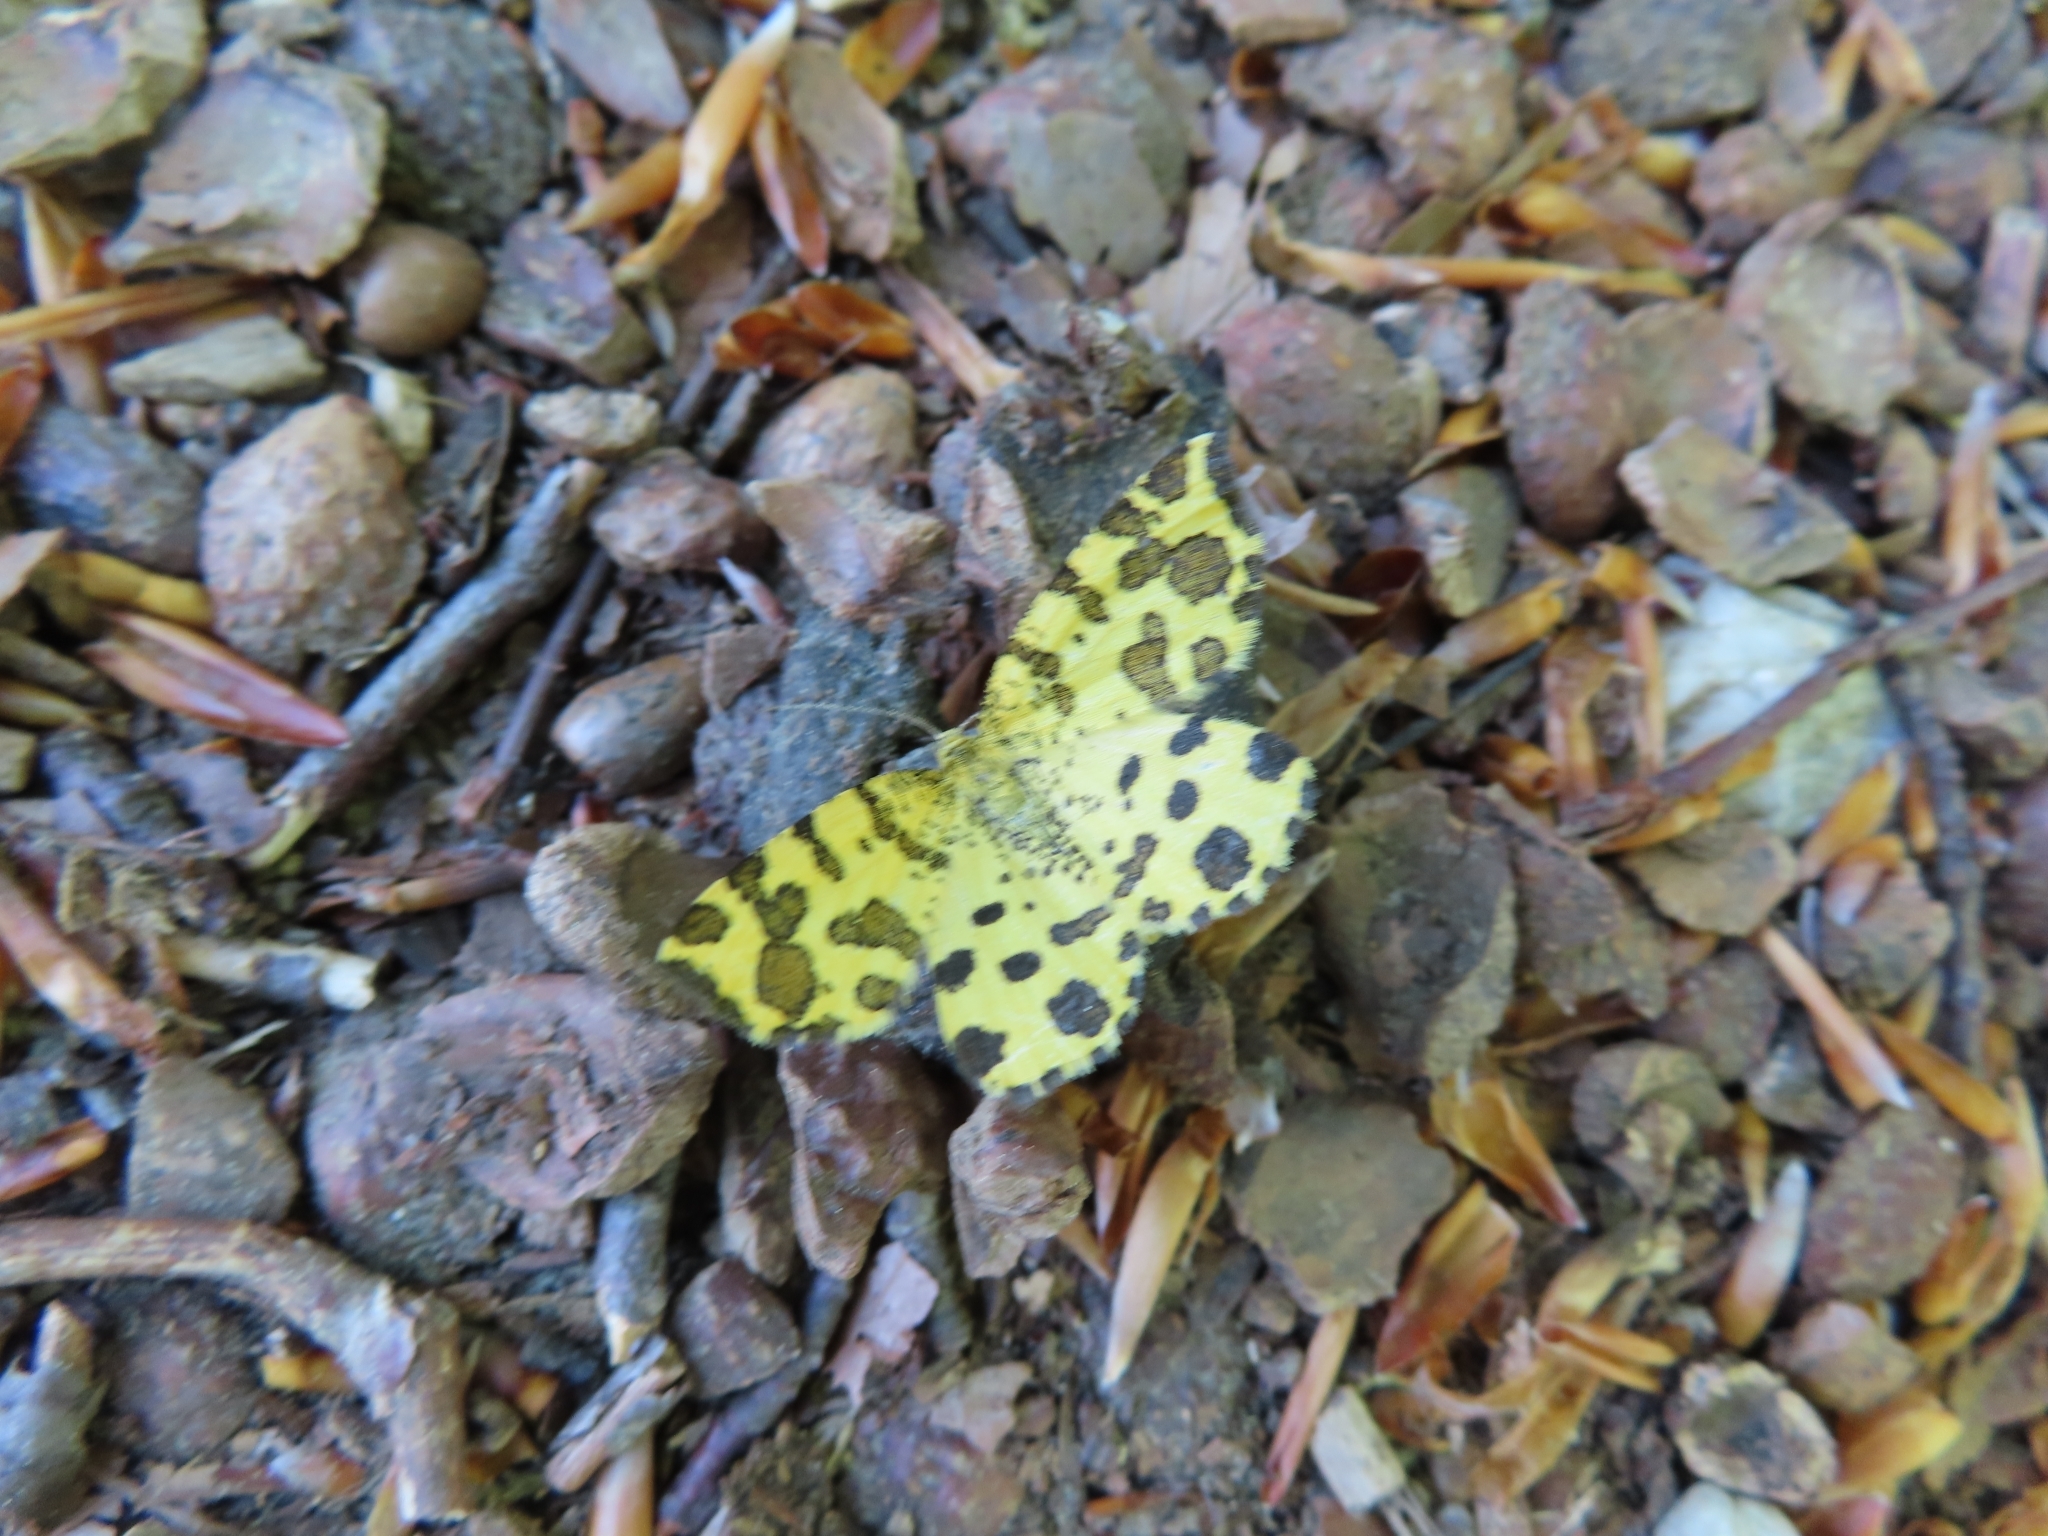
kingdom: Animalia
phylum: Arthropoda
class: Insecta
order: Lepidoptera
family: Geometridae
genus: Pseudopanthera
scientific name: Pseudopanthera macularia
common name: Speckled yellow
